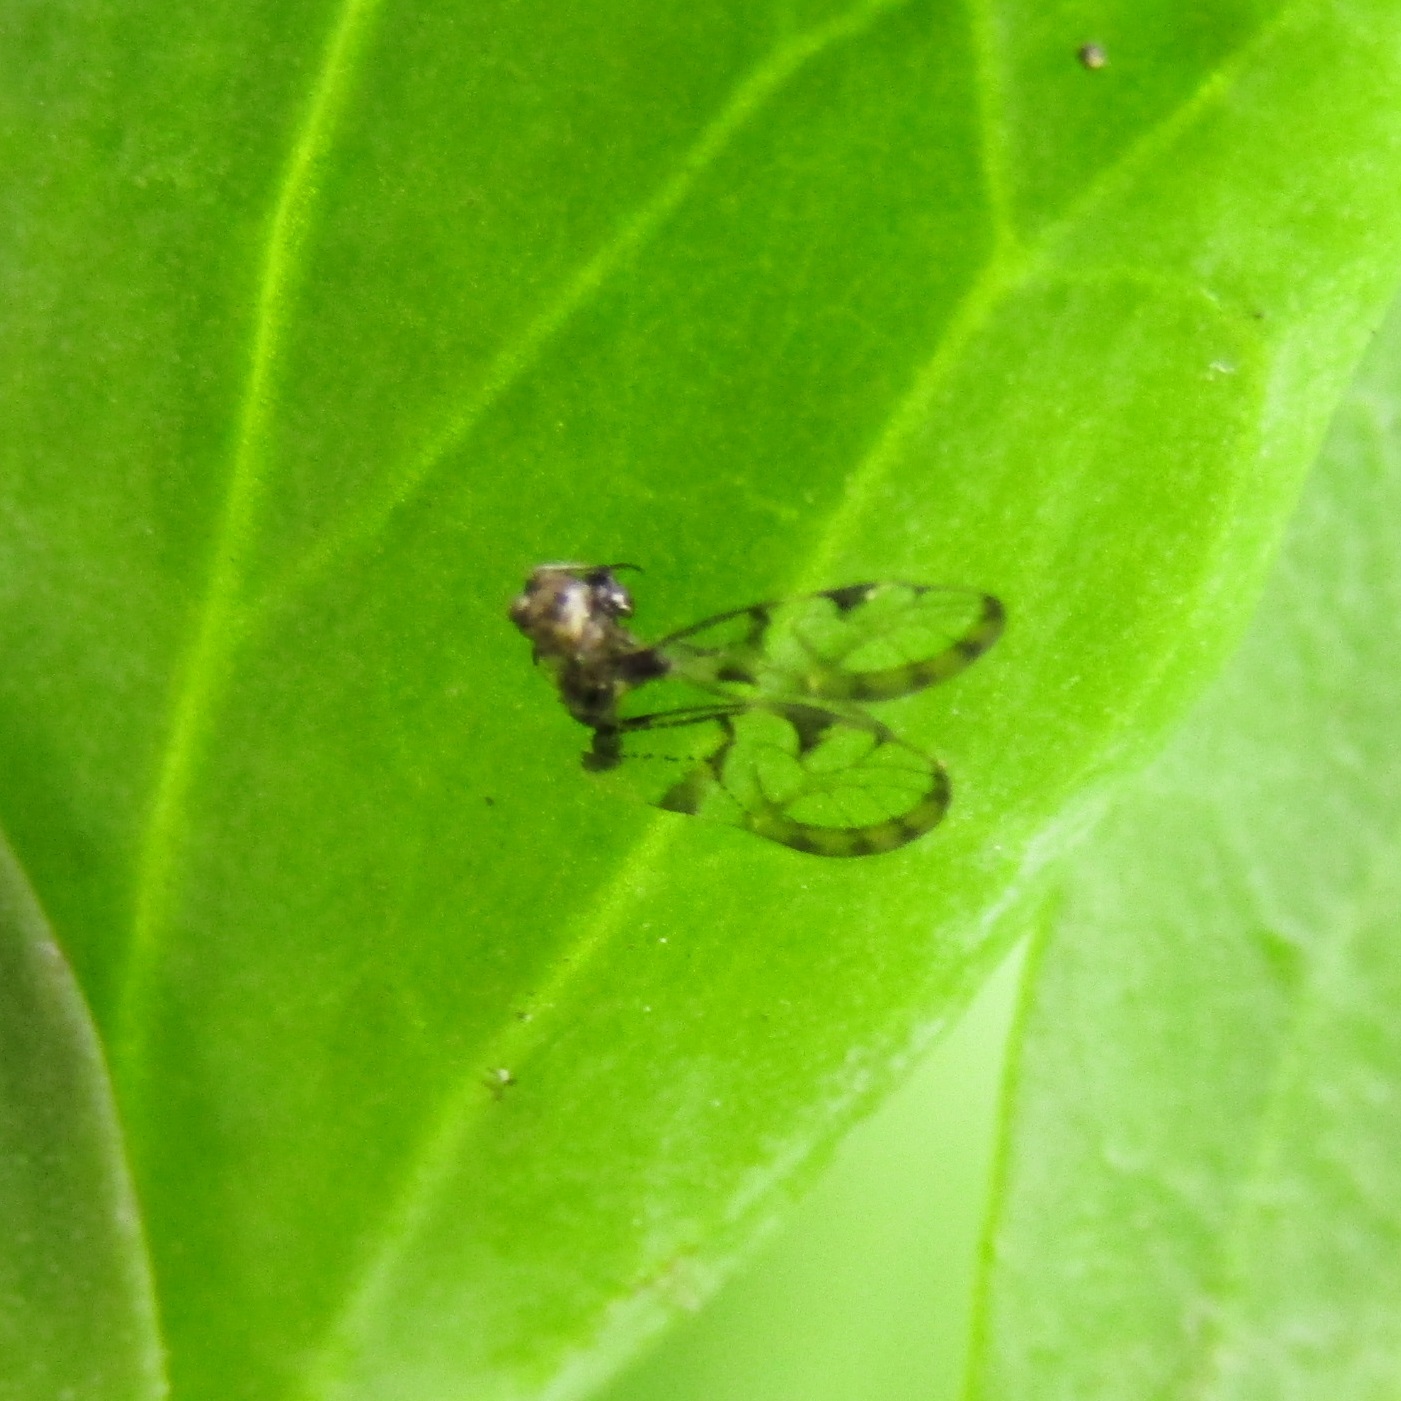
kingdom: Animalia
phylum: Arthropoda
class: Insecta
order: Hemiptera
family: Ricaniidae
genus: Scolypopa
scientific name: Scolypopa australis
